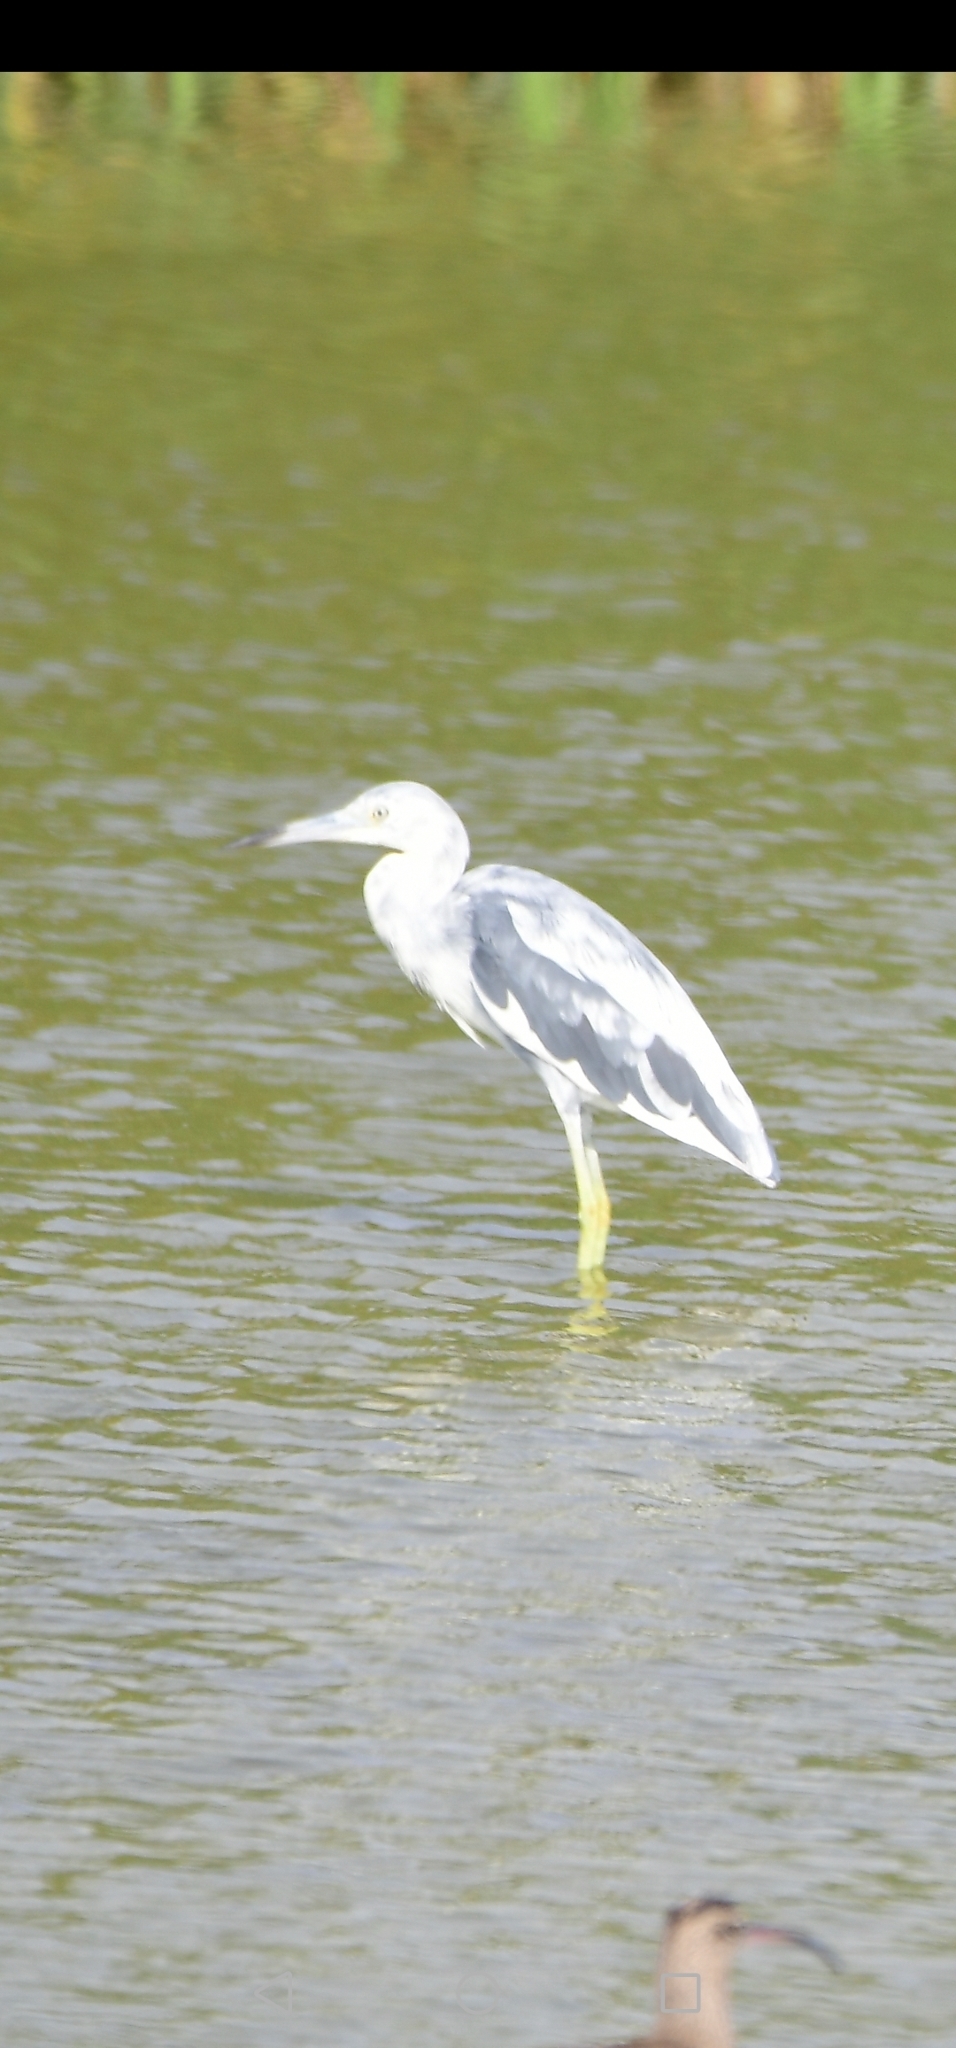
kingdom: Animalia
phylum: Chordata
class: Aves
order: Pelecaniformes
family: Ardeidae
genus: Egretta
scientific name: Egretta caerulea
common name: Little blue heron
